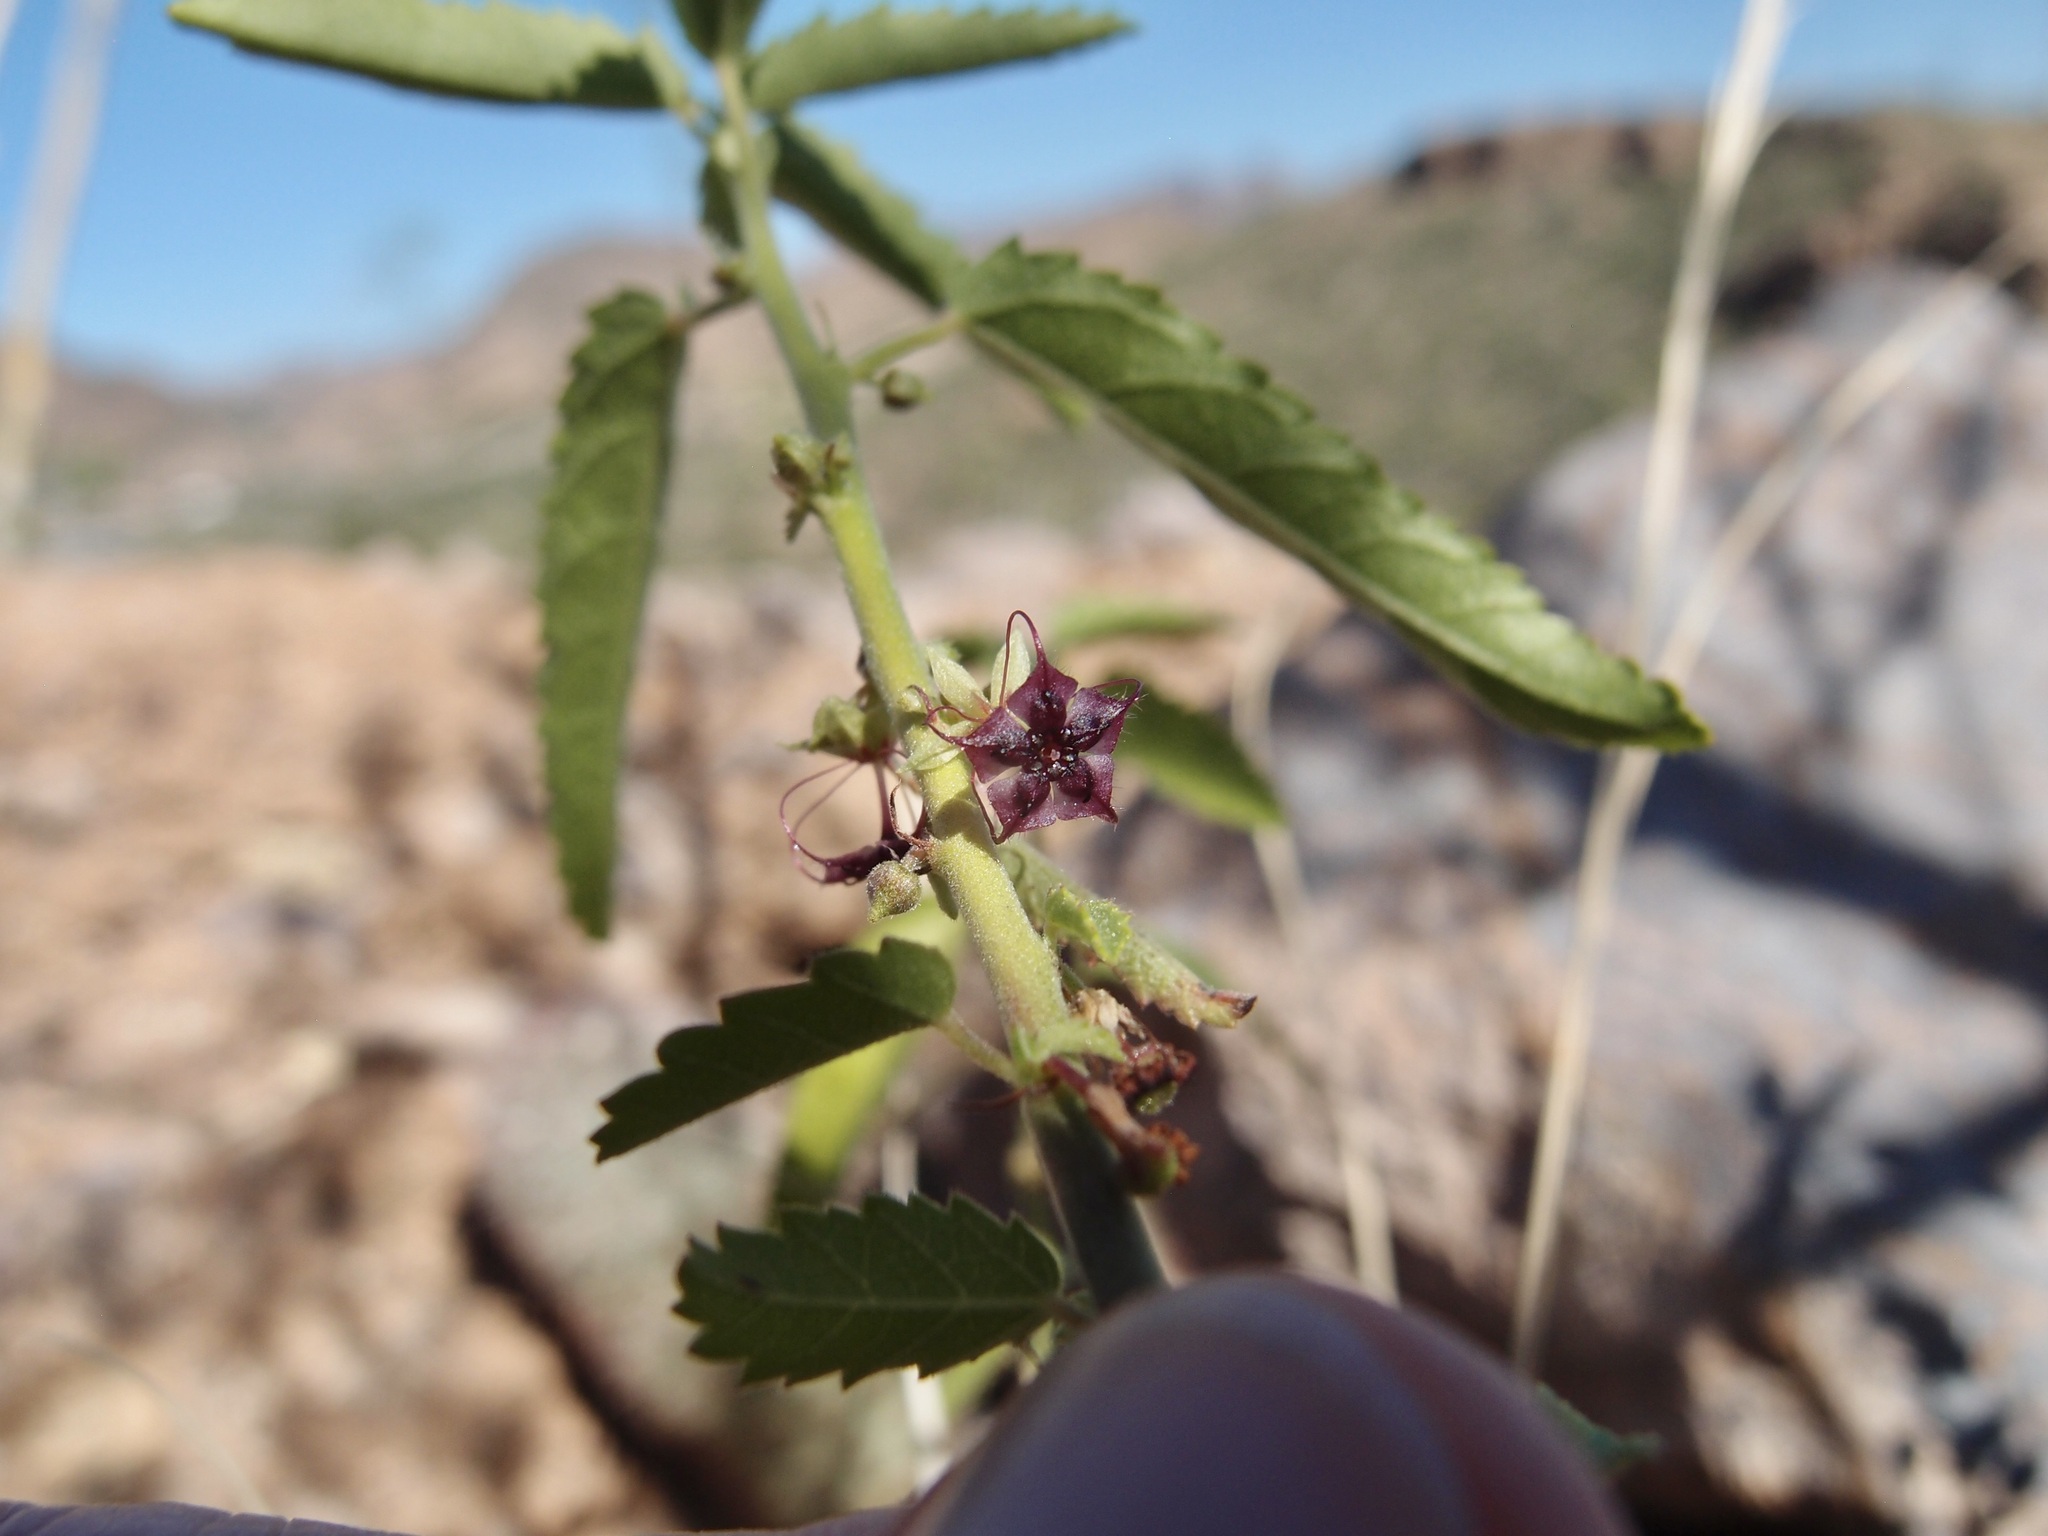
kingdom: Plantae
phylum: Tracheophyta
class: Magnoliopsida
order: Malvales
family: Malvaceae
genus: Ayenia
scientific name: Ayenia filiformis
